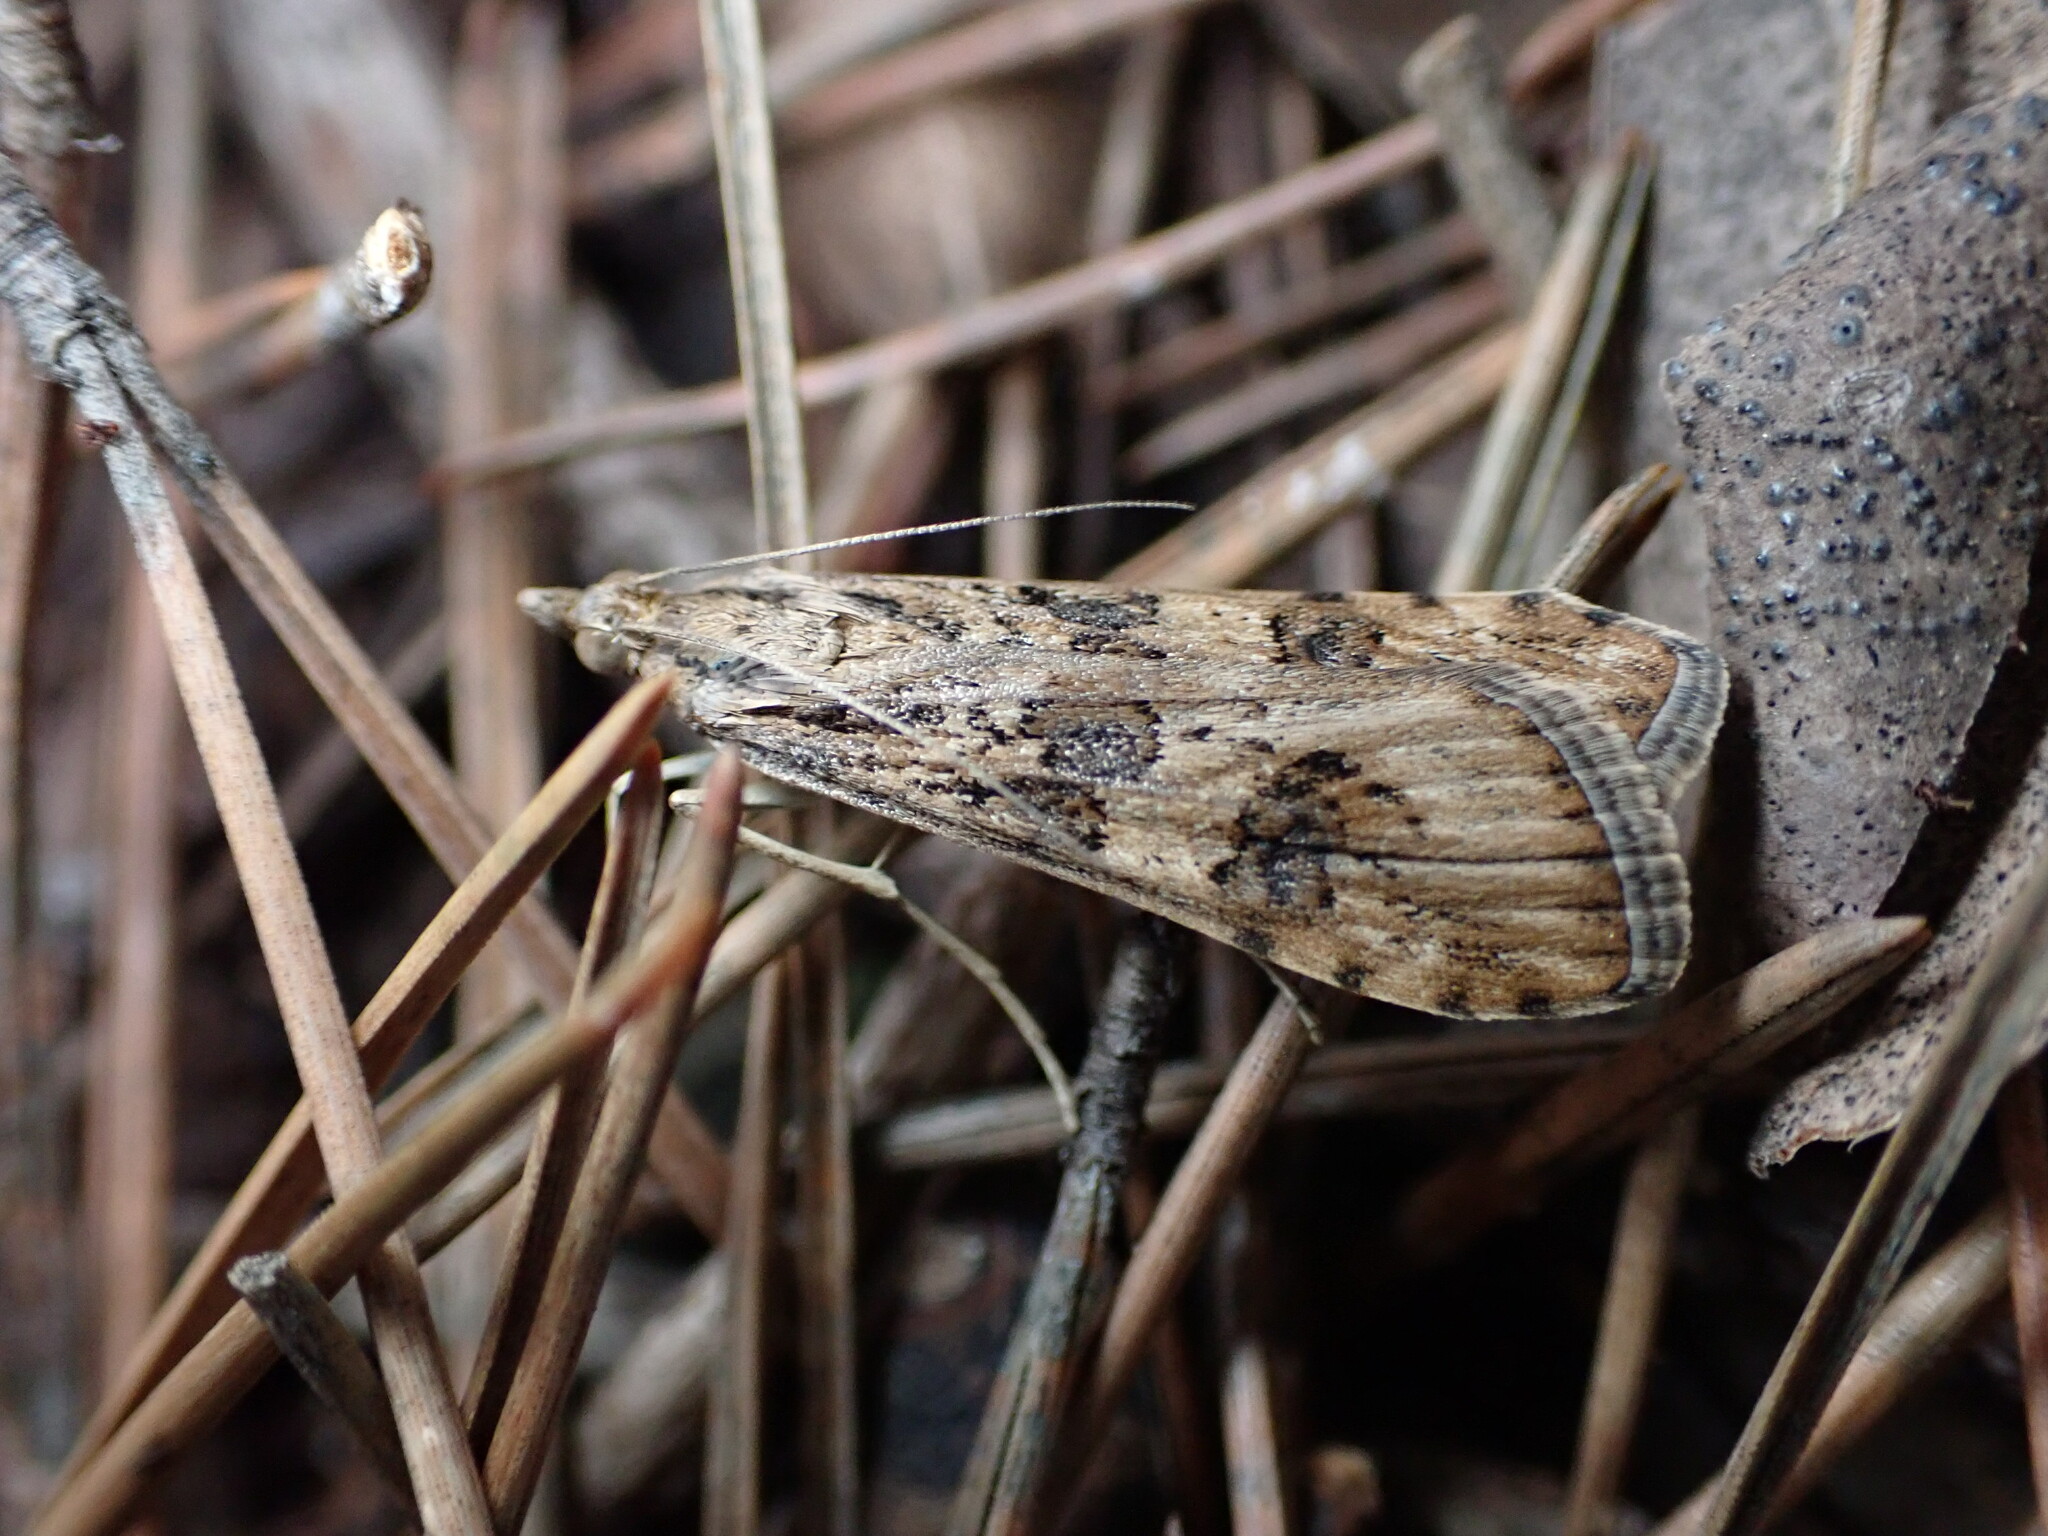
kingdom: Animalia
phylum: Arthropoda
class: Insecta
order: Lepidoptera
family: Crambidae
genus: Nomophila
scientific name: Nomophila noctuella
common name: Rush veneer
